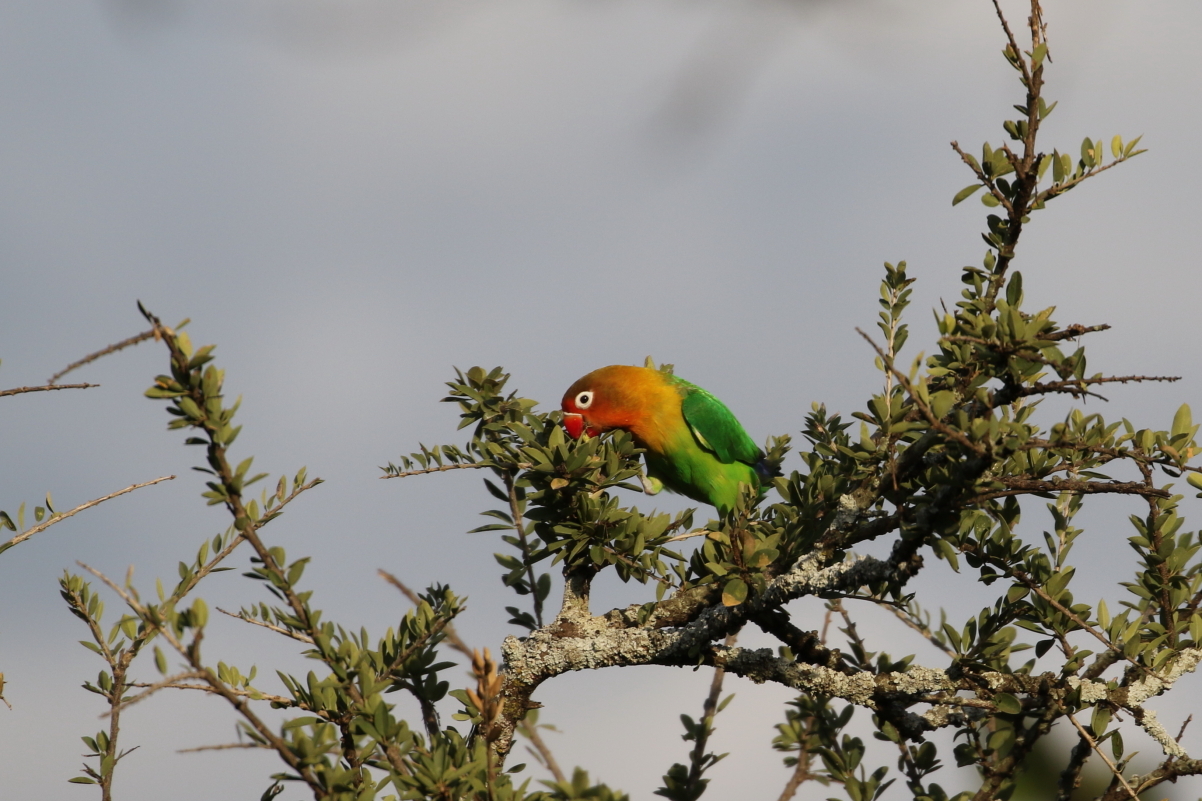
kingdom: Animalia
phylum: Chordata
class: Aves
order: Psittaciformes
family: Psittacidae
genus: Agapornis
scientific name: Agapornis fischeri
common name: Fischer's lovebird
